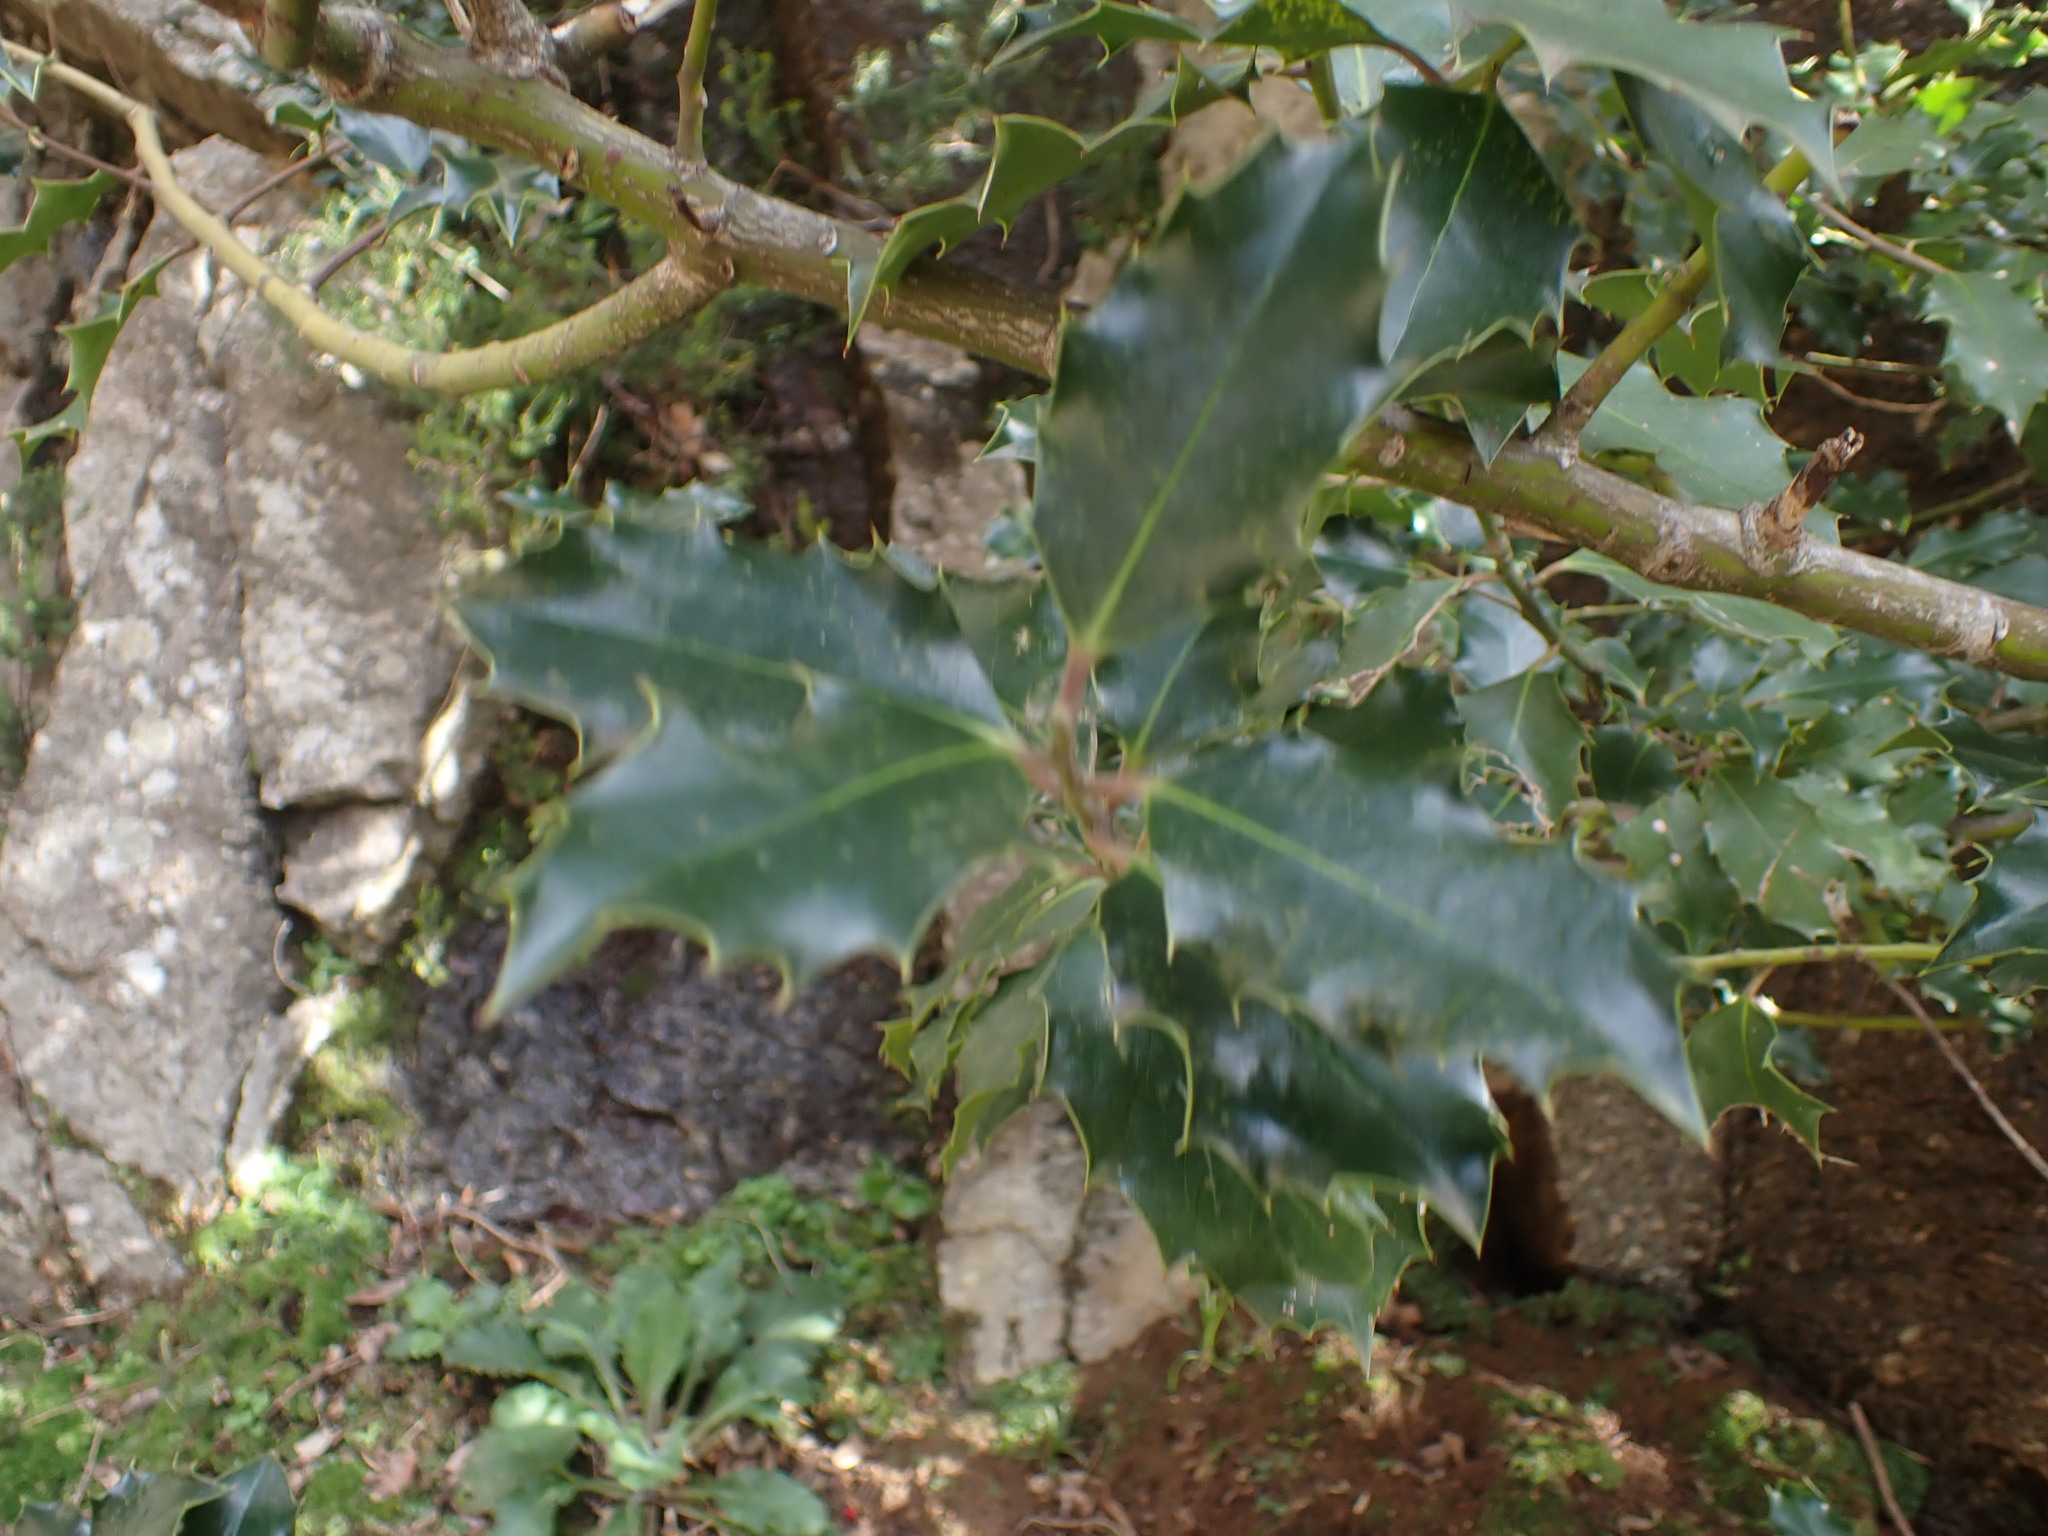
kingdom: Plantae
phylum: Tracheophyta
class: Magnoliopsida
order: Aquifoliales
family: Aquifoliaceae
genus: Ilex
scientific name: Ilex aquifolium
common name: English holly
